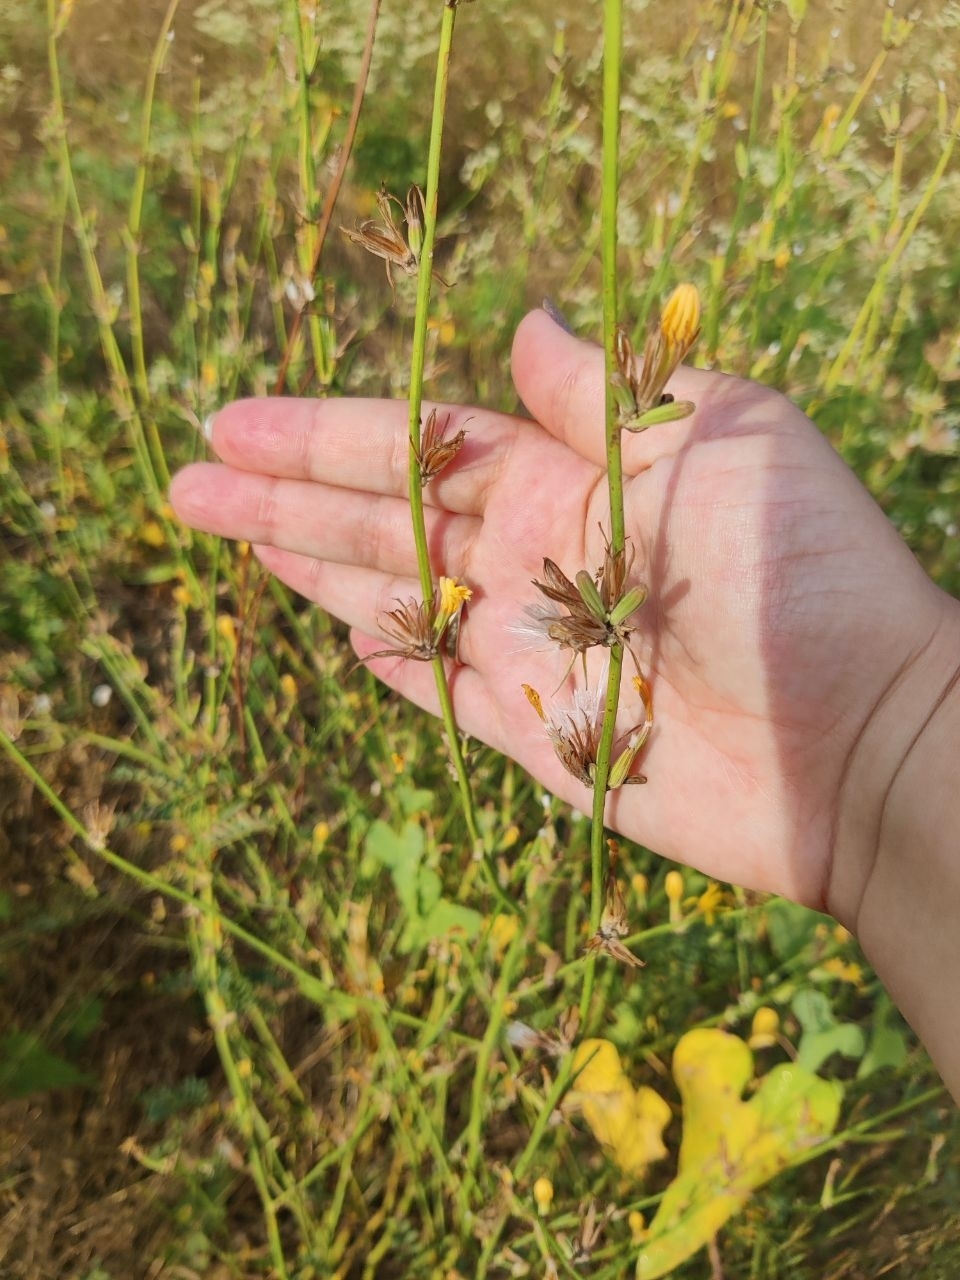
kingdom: Plantae
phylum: Tracheophyta
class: Magnoliopsida
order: Asterales
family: Asteraceae
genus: Chondrilla
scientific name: Chondrilla juncea
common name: Skeleton weed
